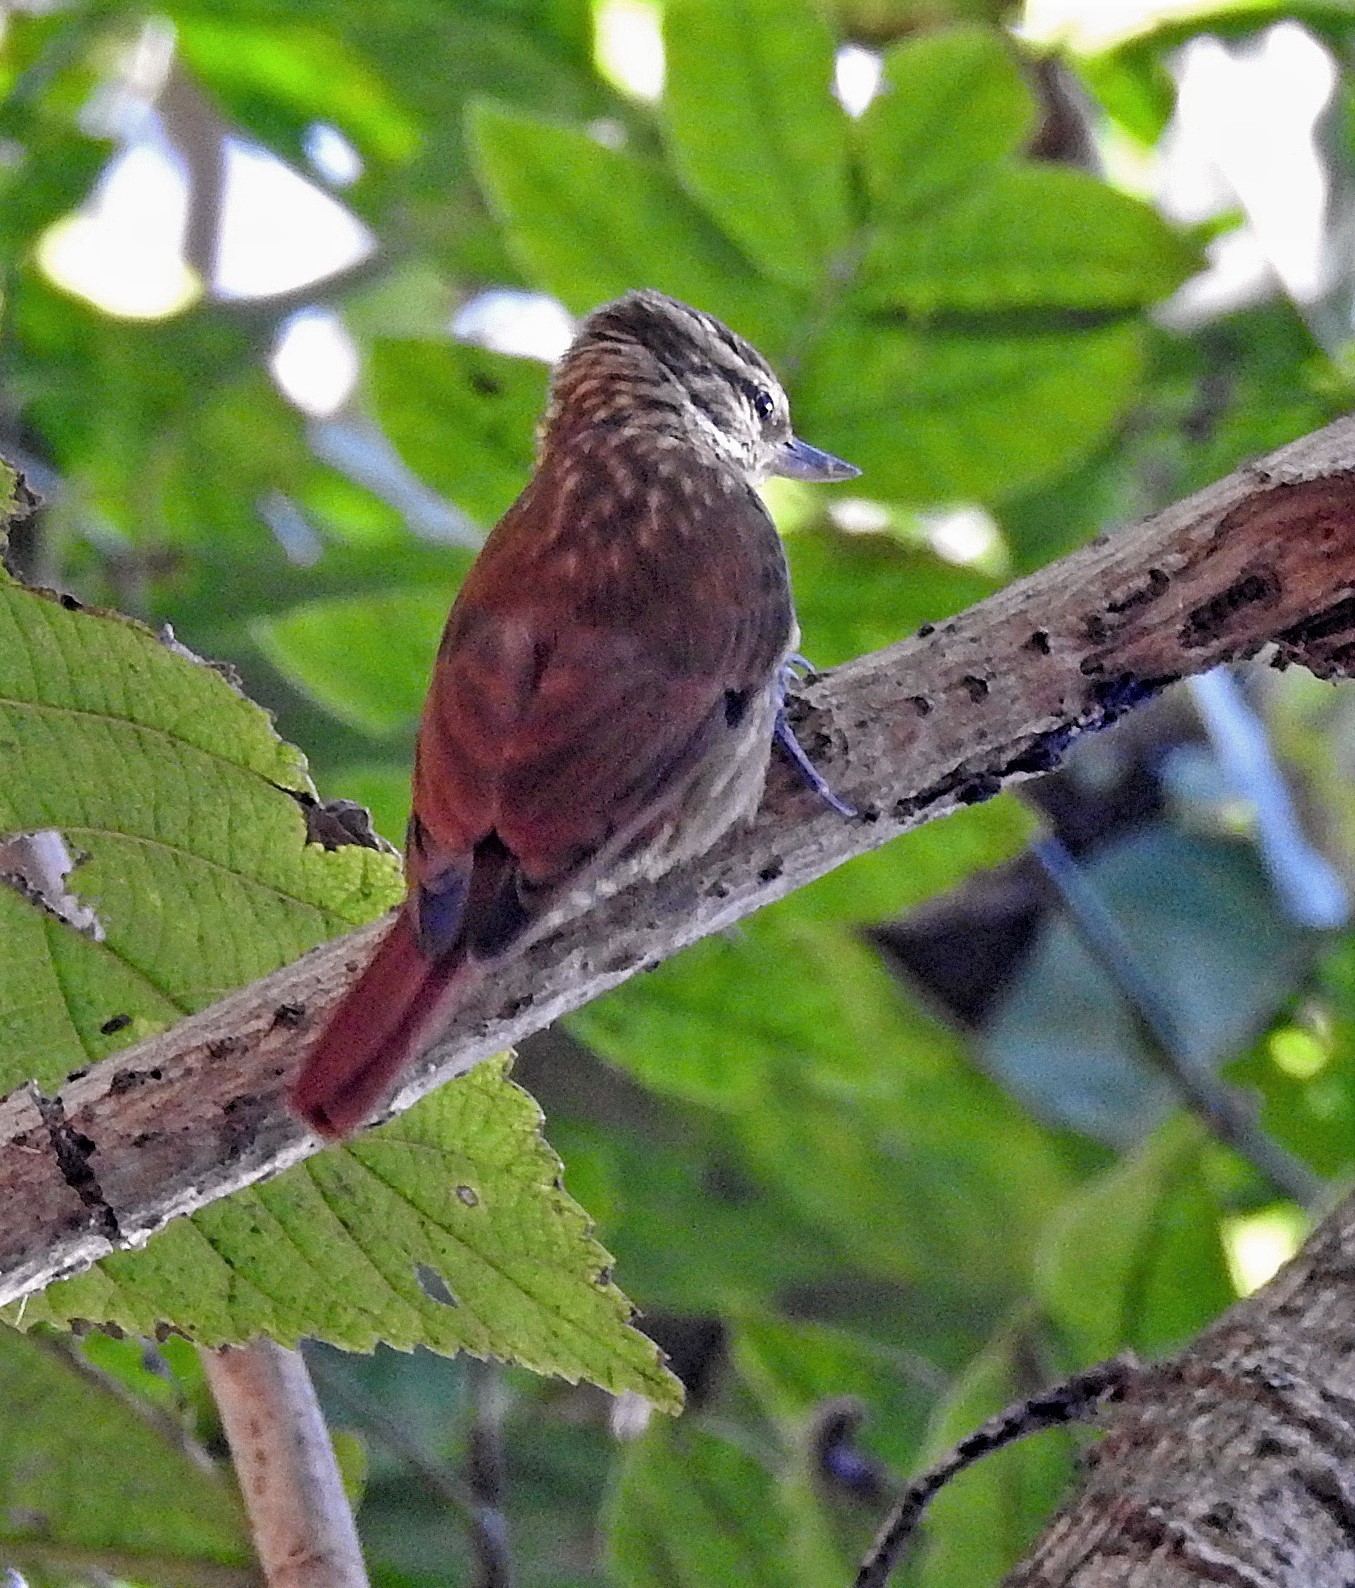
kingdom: Animalia
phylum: Chordata
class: Aves
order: Passeriformes
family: Furnariidae
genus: Xenops
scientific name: Xenops rutilans
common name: Streaked xenops
